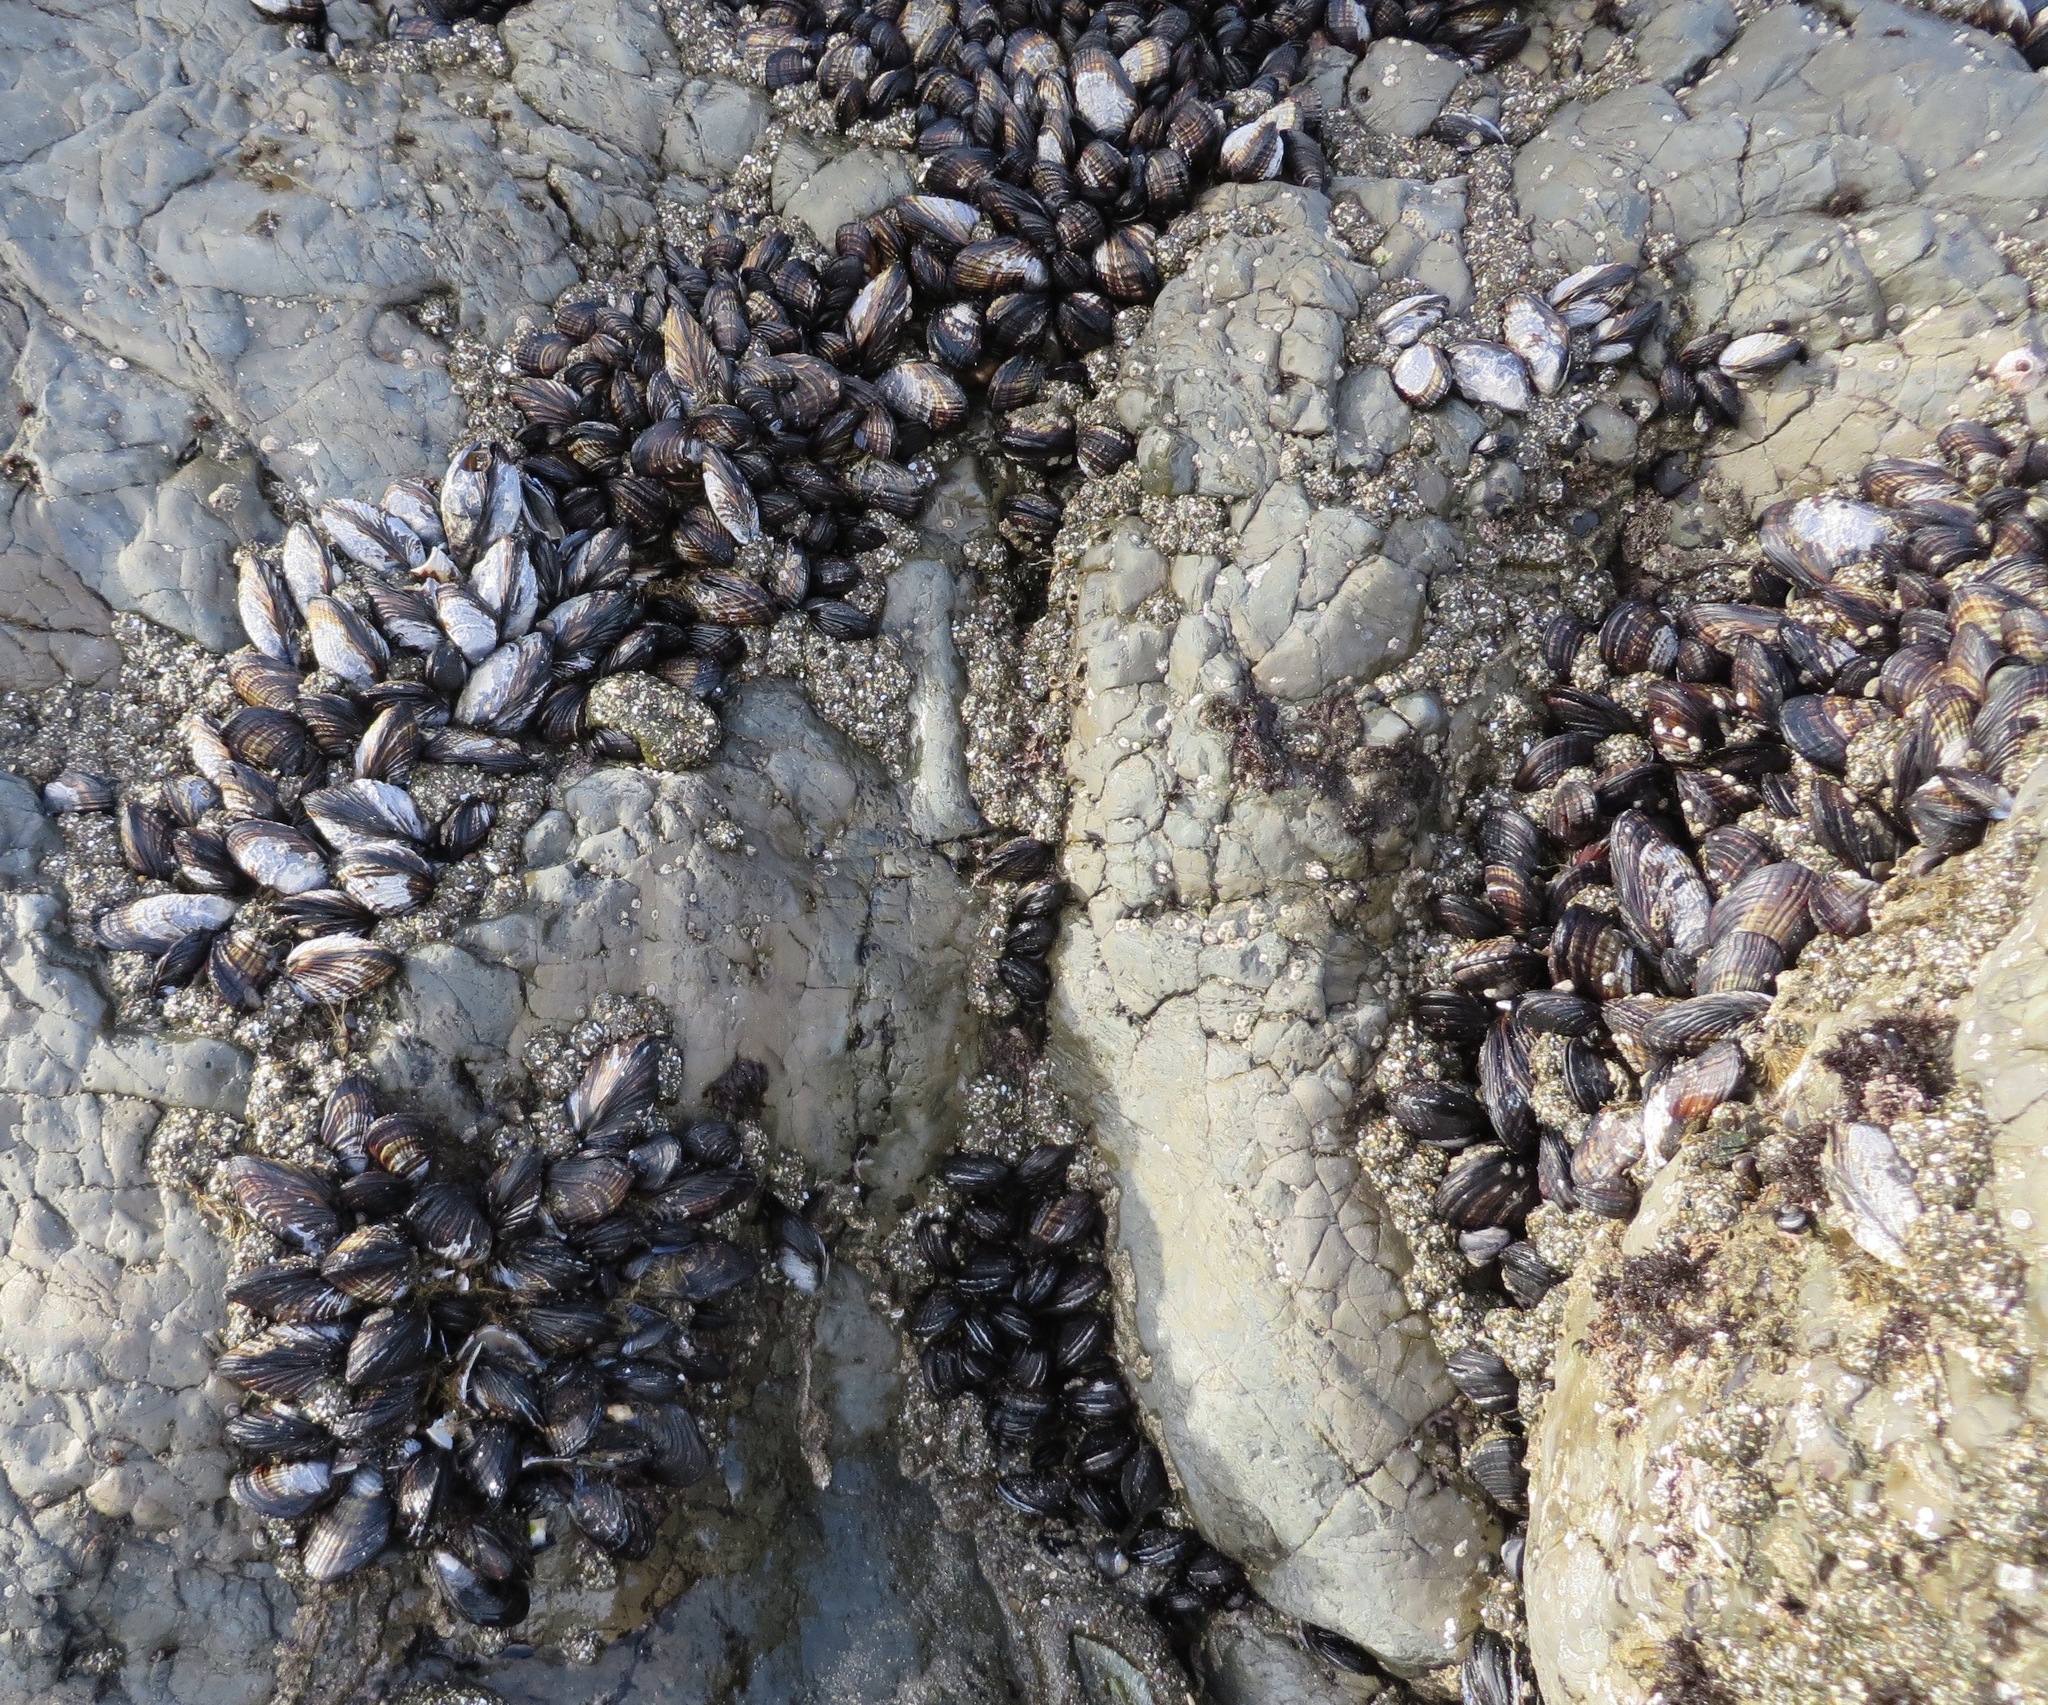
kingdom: Animalia
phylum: Mollusca
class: Bivalvia
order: Mytilida
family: Mytilidae
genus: Mytilus
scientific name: Mytilus californianus
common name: California mussel
